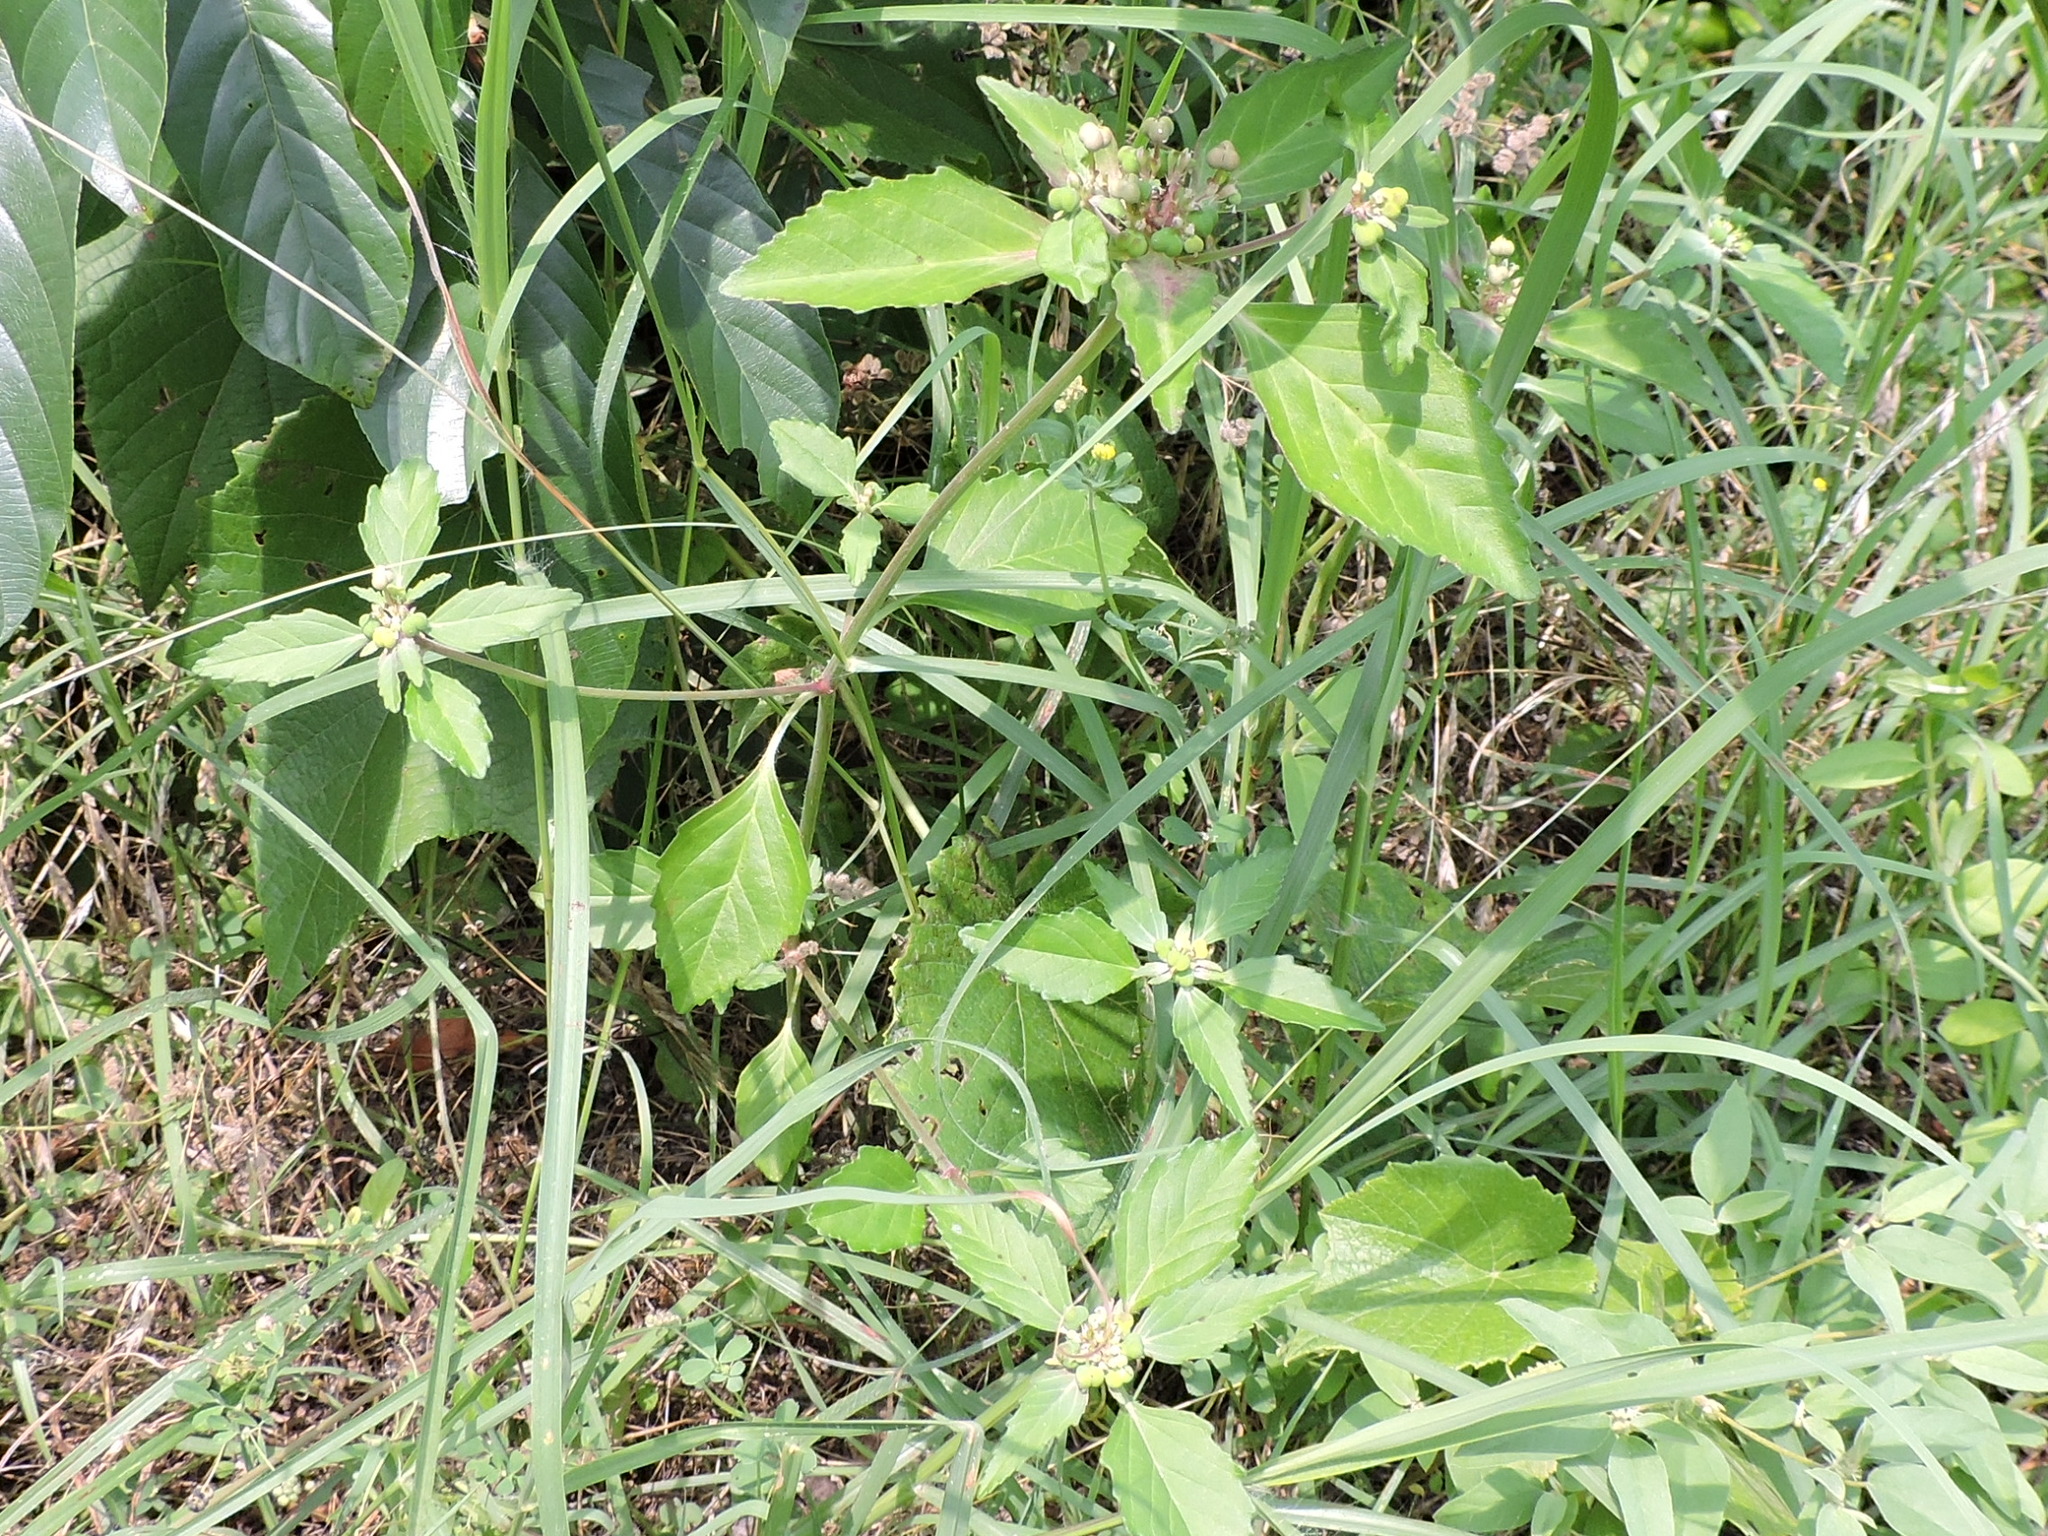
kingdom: Plantae
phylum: Tracheophyta
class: Magnoliopsida
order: Malpighiales
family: Euphorbiaceae
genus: Euphorbia
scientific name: Euphorbia dentata
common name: Dentate spurge
